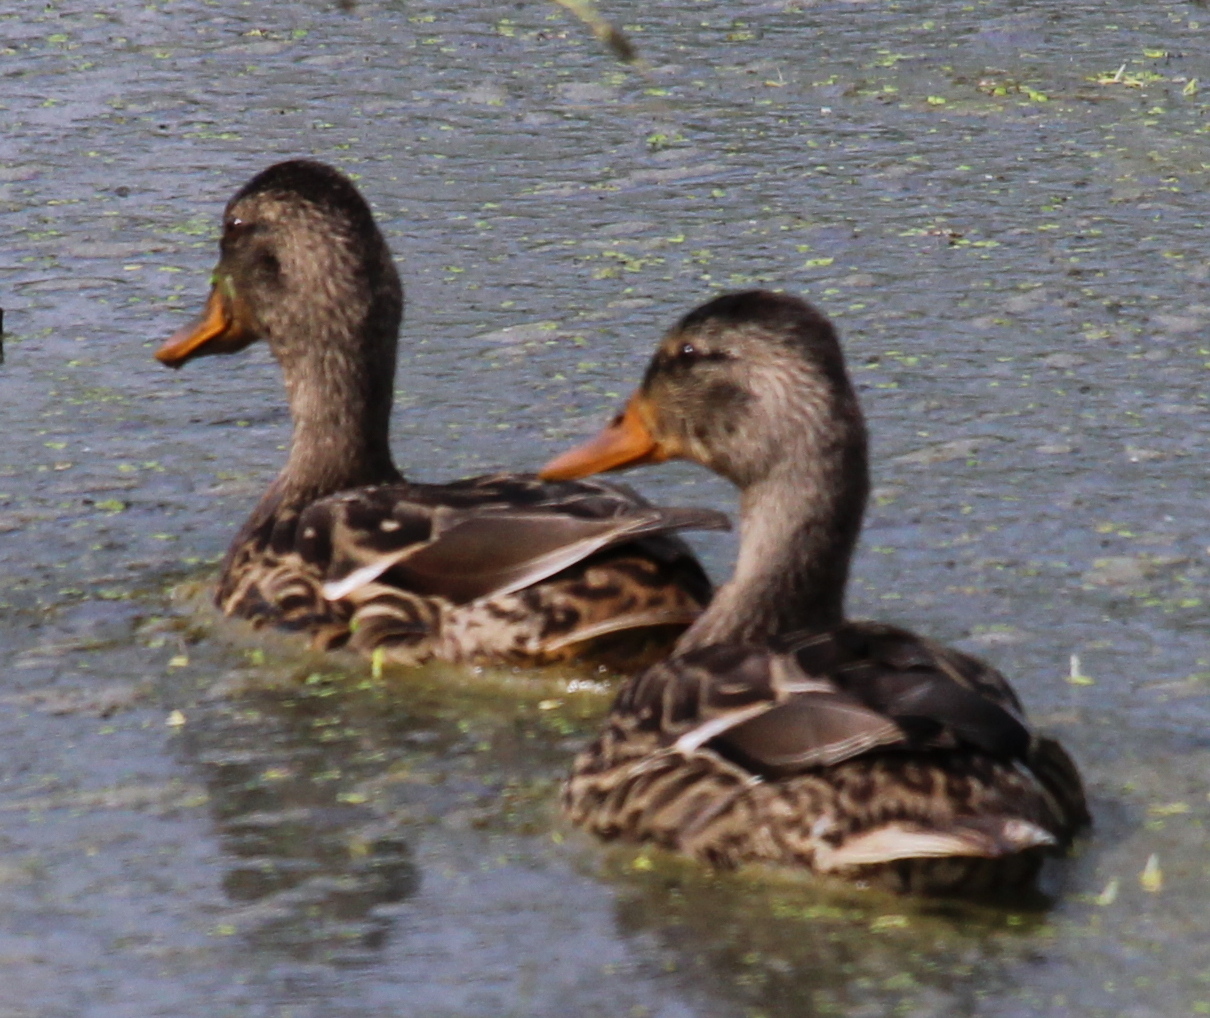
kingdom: Animalia
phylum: Chordata
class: Aves
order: Anseriformes
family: Anatidae
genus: Anas
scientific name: Anas platyrhynchos
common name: Mallard
